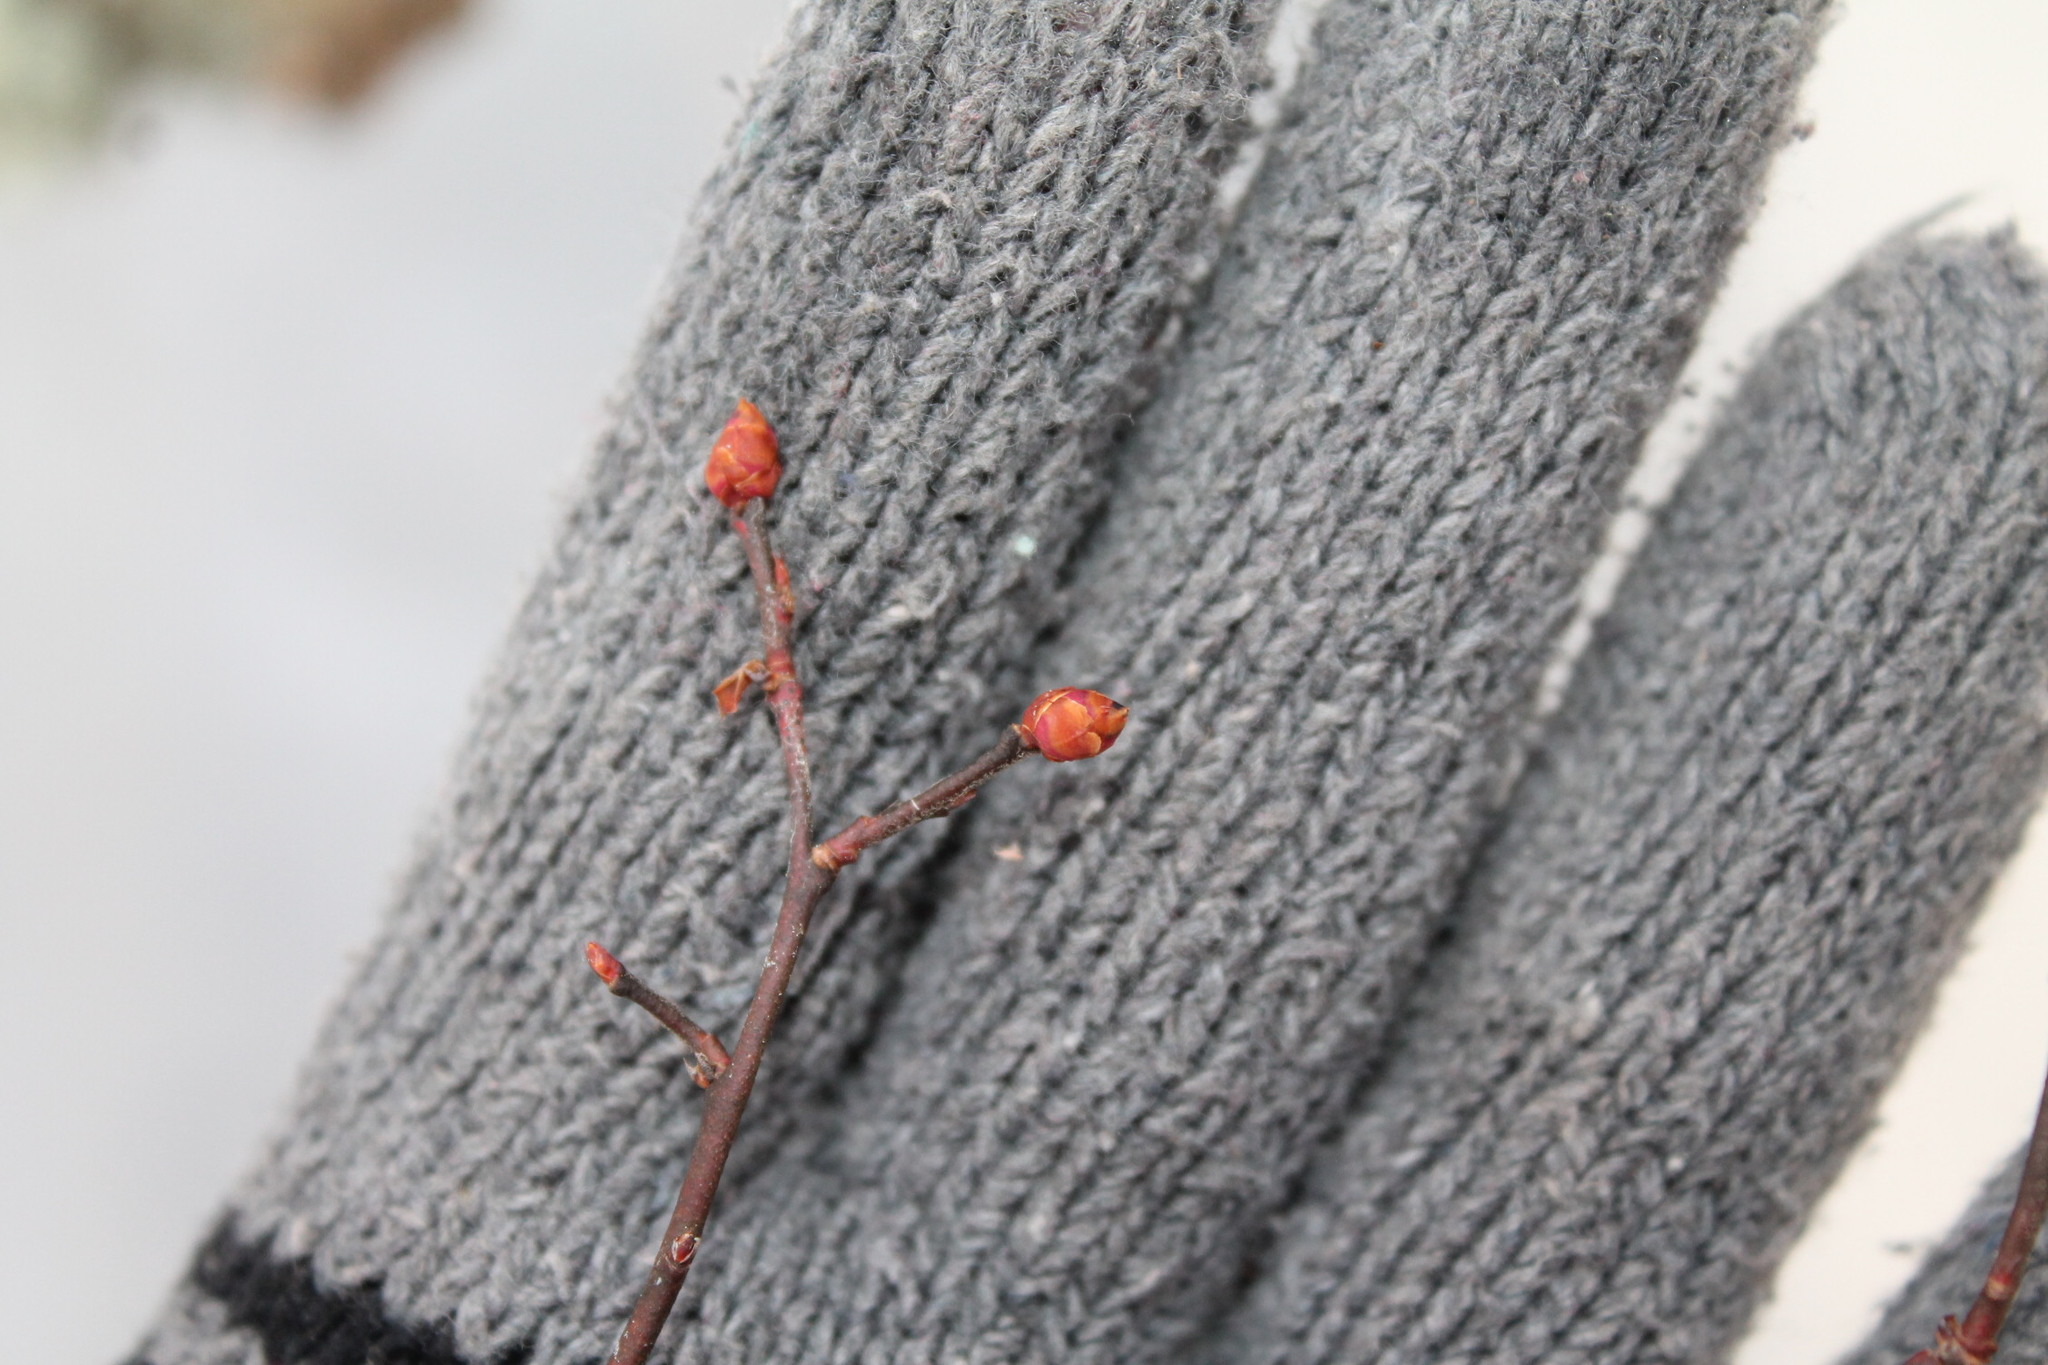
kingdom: Plantae
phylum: Tracheophyta
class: Magnoliopsida
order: Ericales
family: Ericaceae
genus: Vaccinium
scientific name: Vaccinium corymbosum
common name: Blueberry
